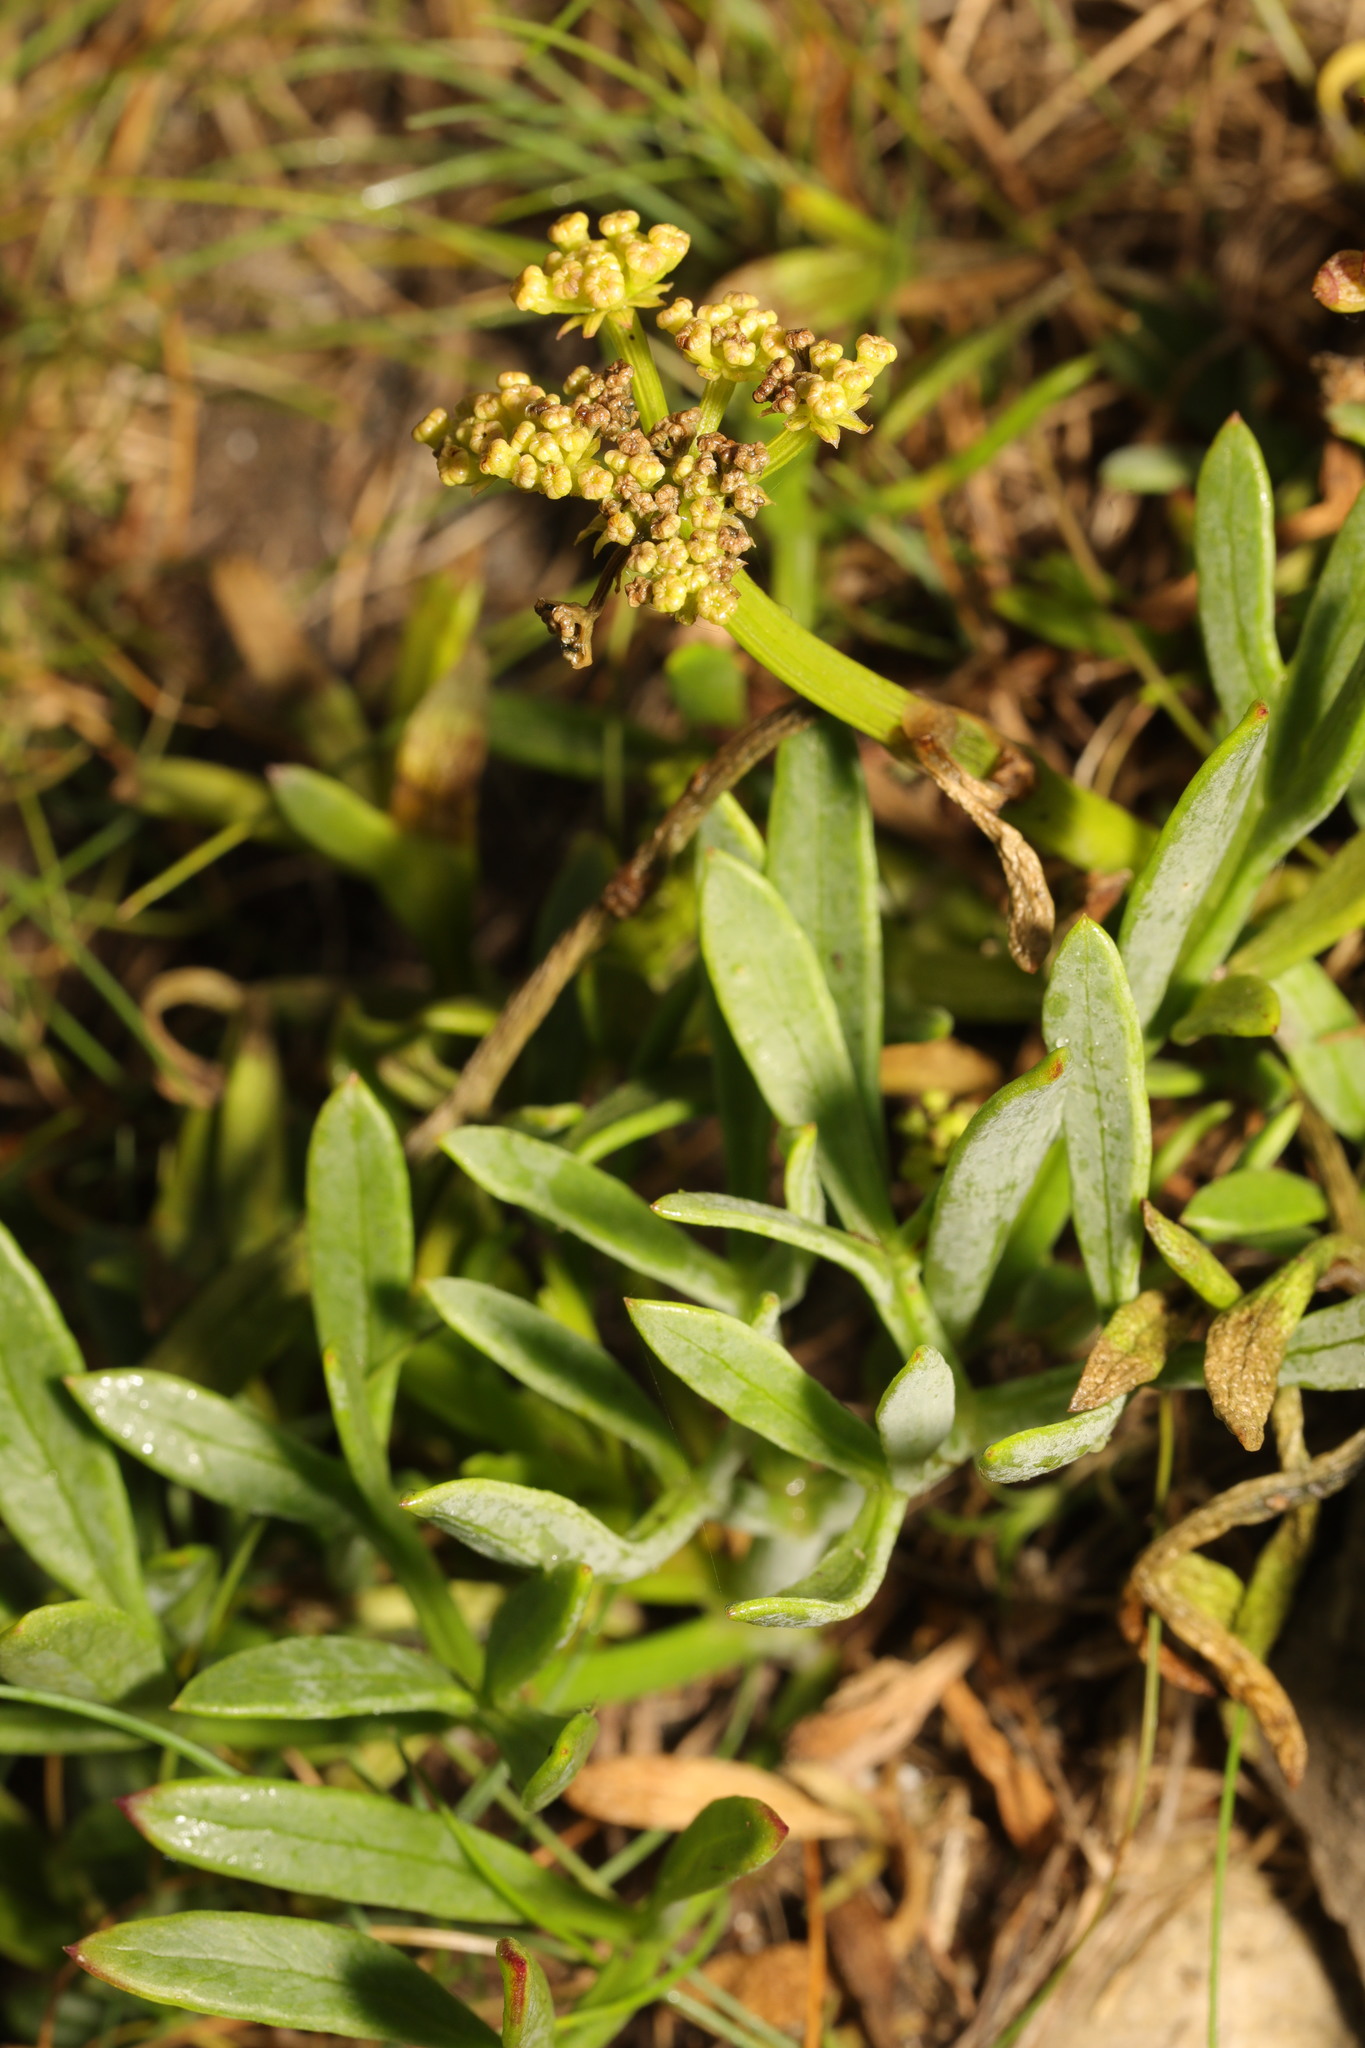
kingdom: Plantae
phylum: Tracheophyta
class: Magnoliopsida
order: Apiales
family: Apiaceae
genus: Crithmum
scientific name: Crithmum maritimum
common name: Rock samphire
